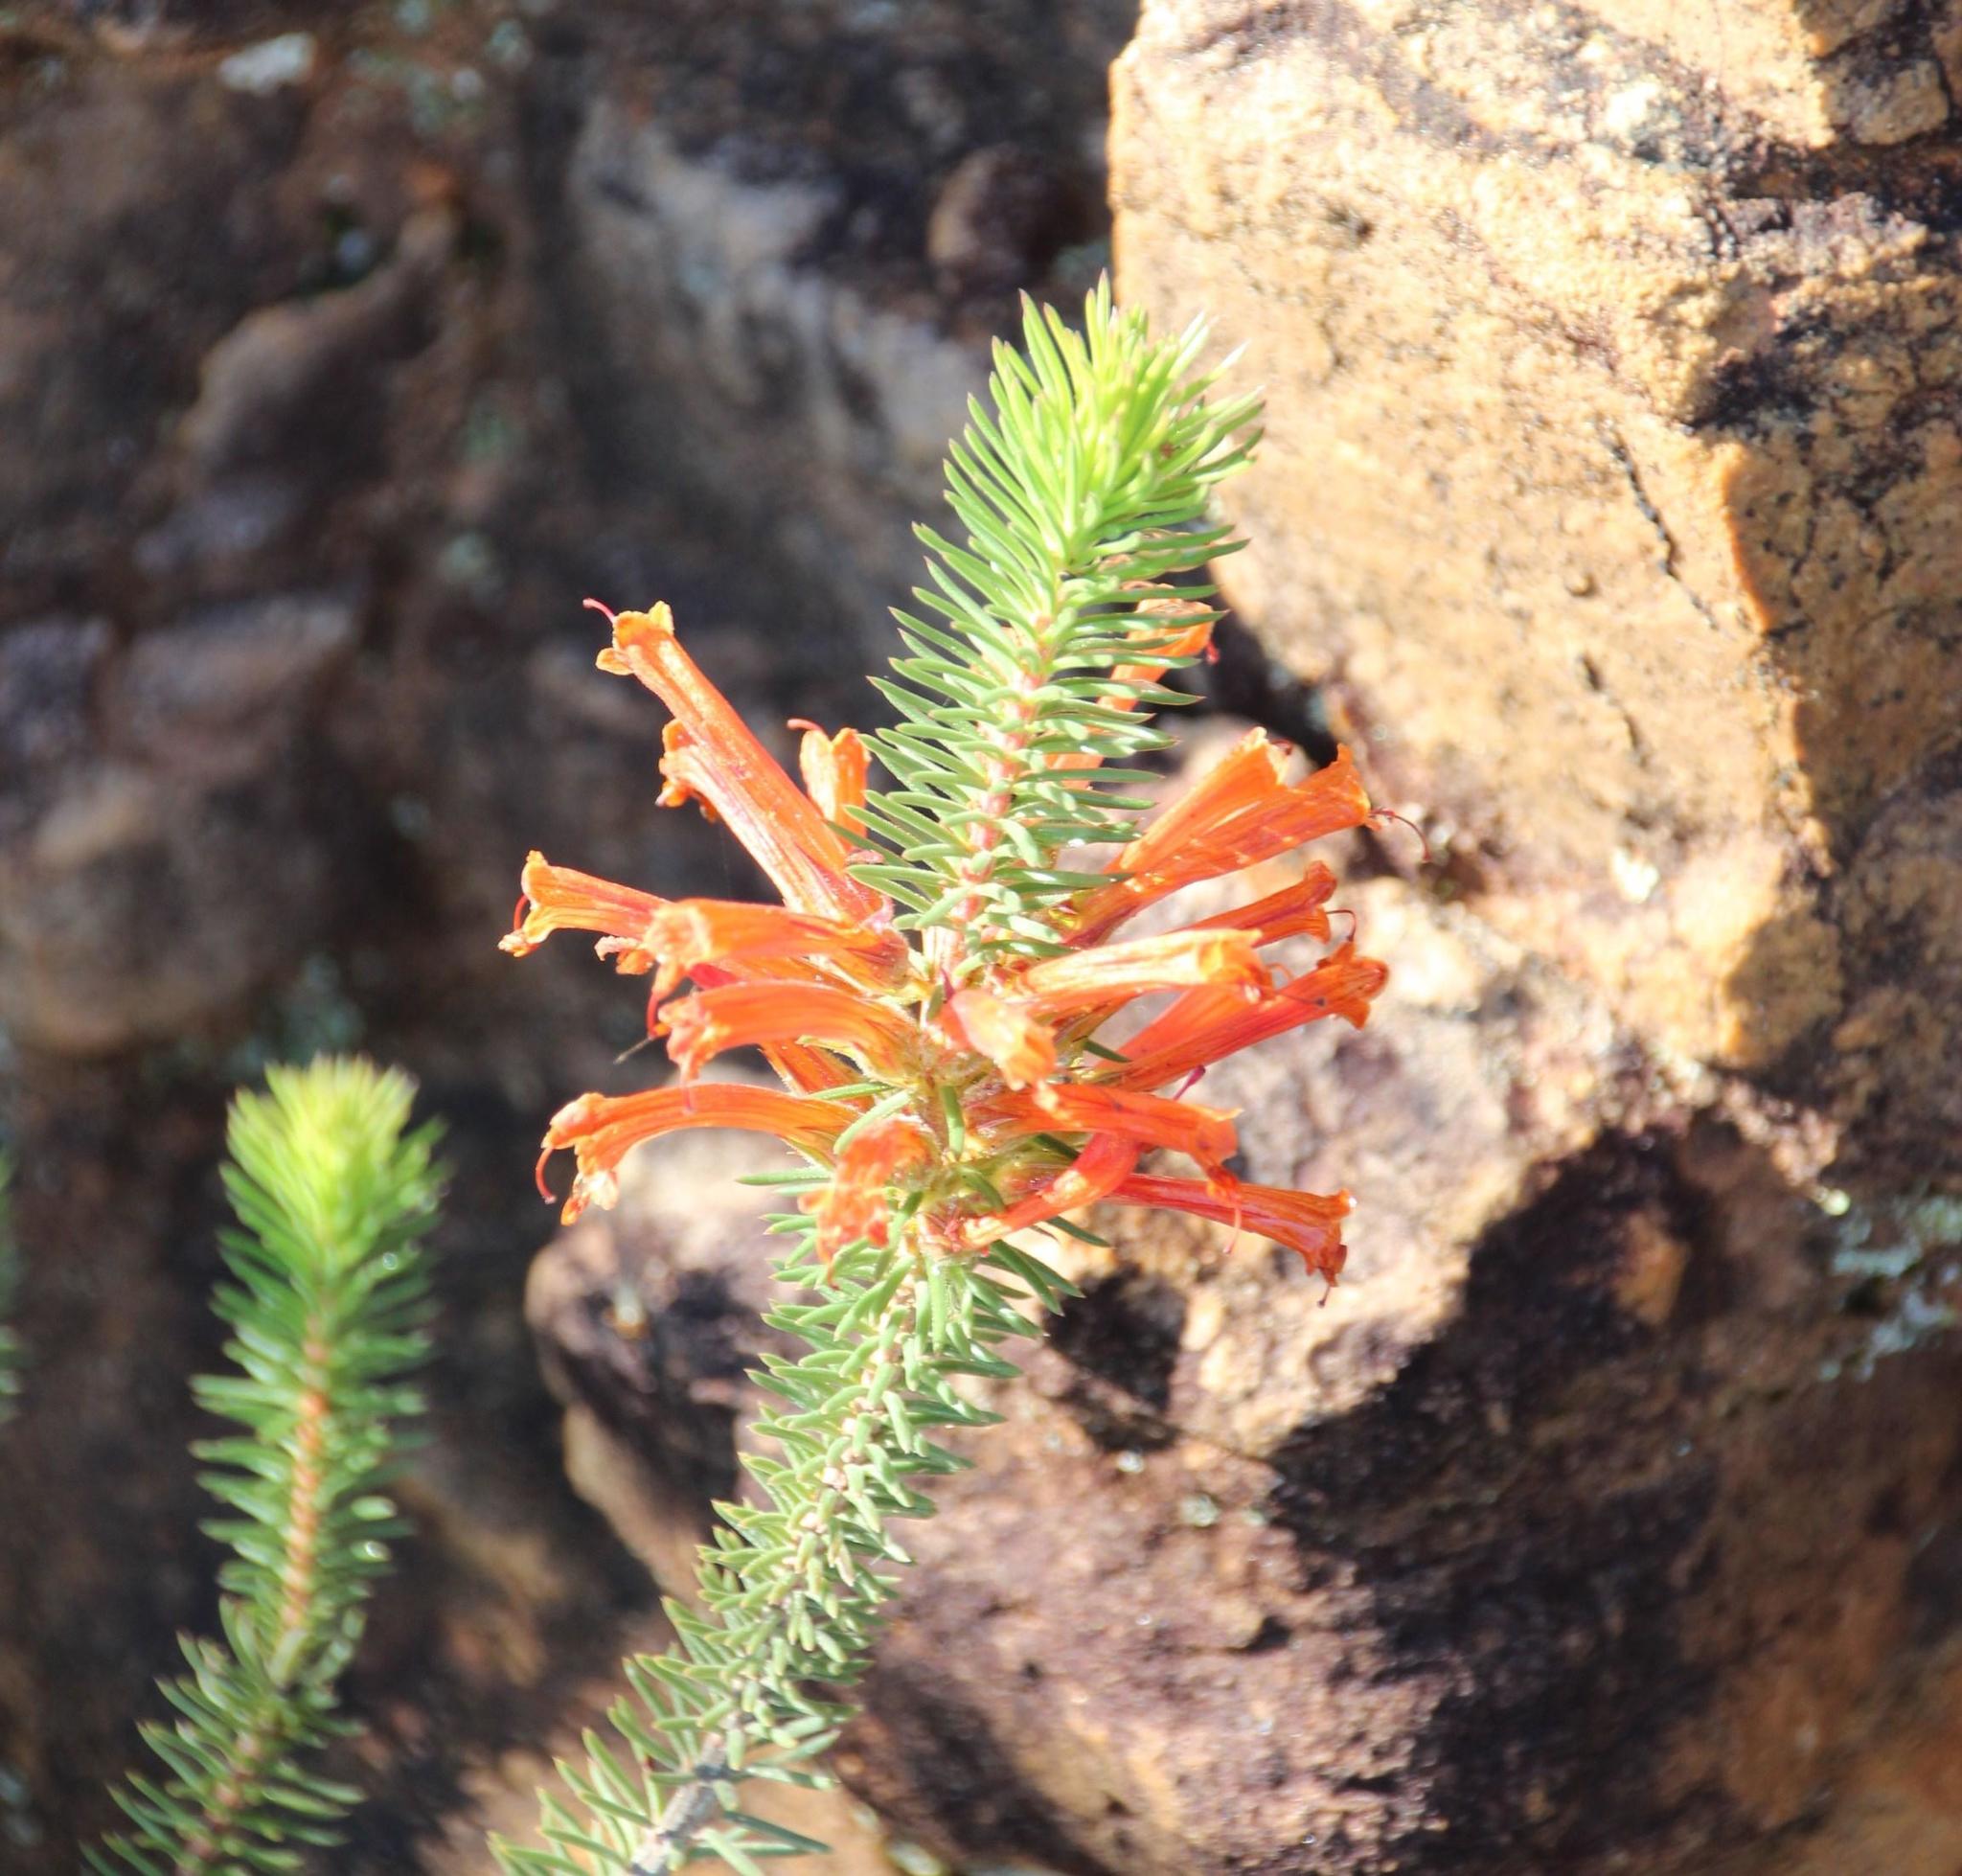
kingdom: Plantae
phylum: Tracheophyta
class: Magnoliopsida
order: Ericales
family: Ericaceae
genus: Erica
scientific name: Erica abietina
